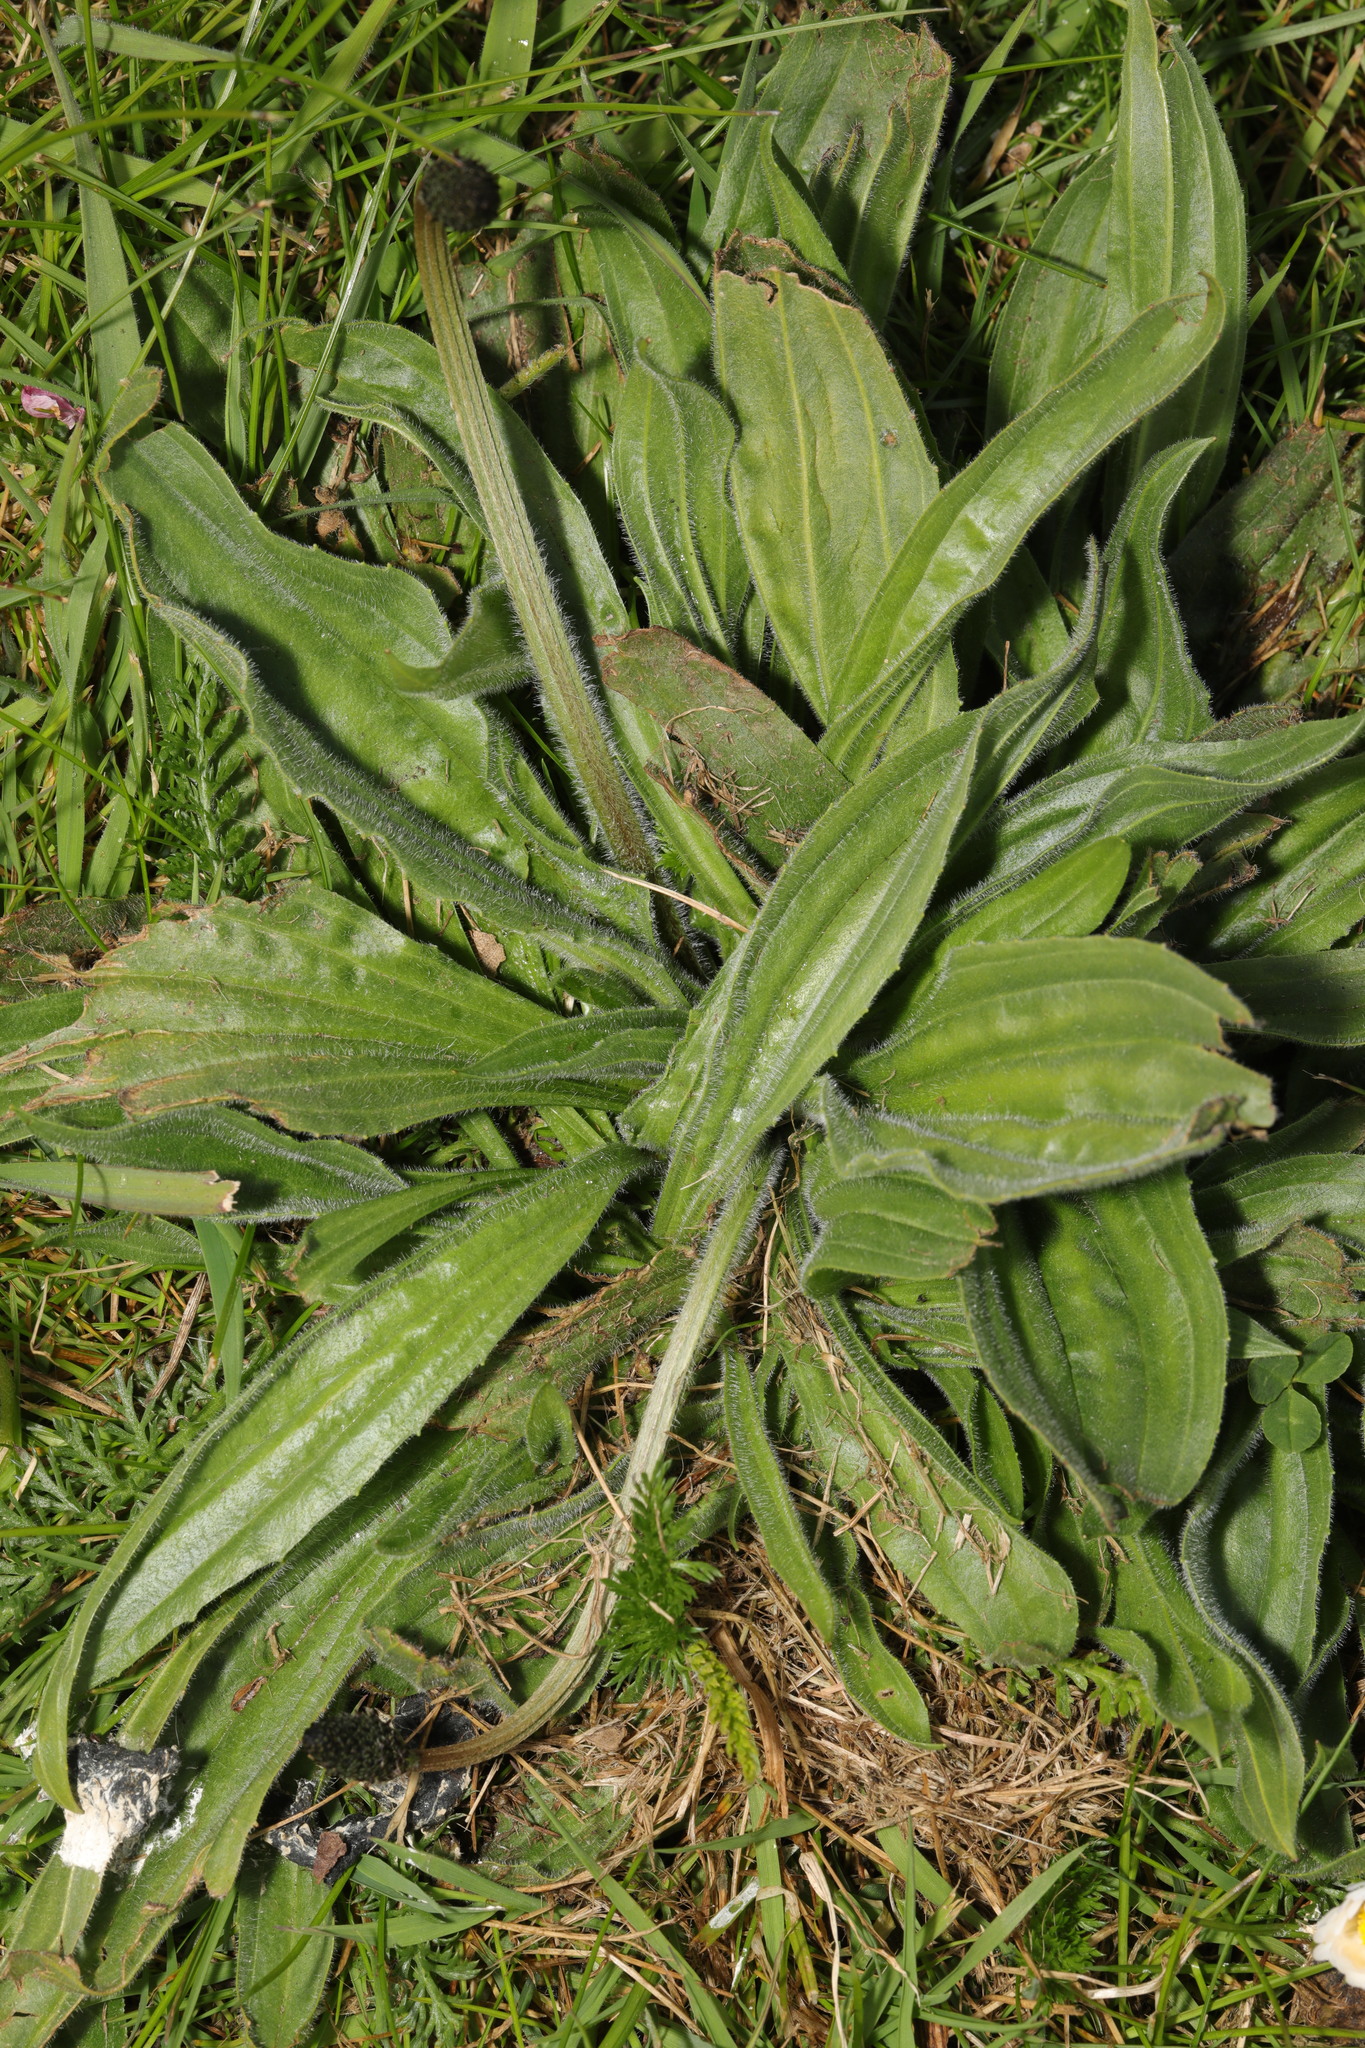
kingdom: Plantae
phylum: Tracheophyta
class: Magnoliopsida
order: Lamiales
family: Plantaginaceae
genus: Plantago
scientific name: Plantago media
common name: Hoary plantain
